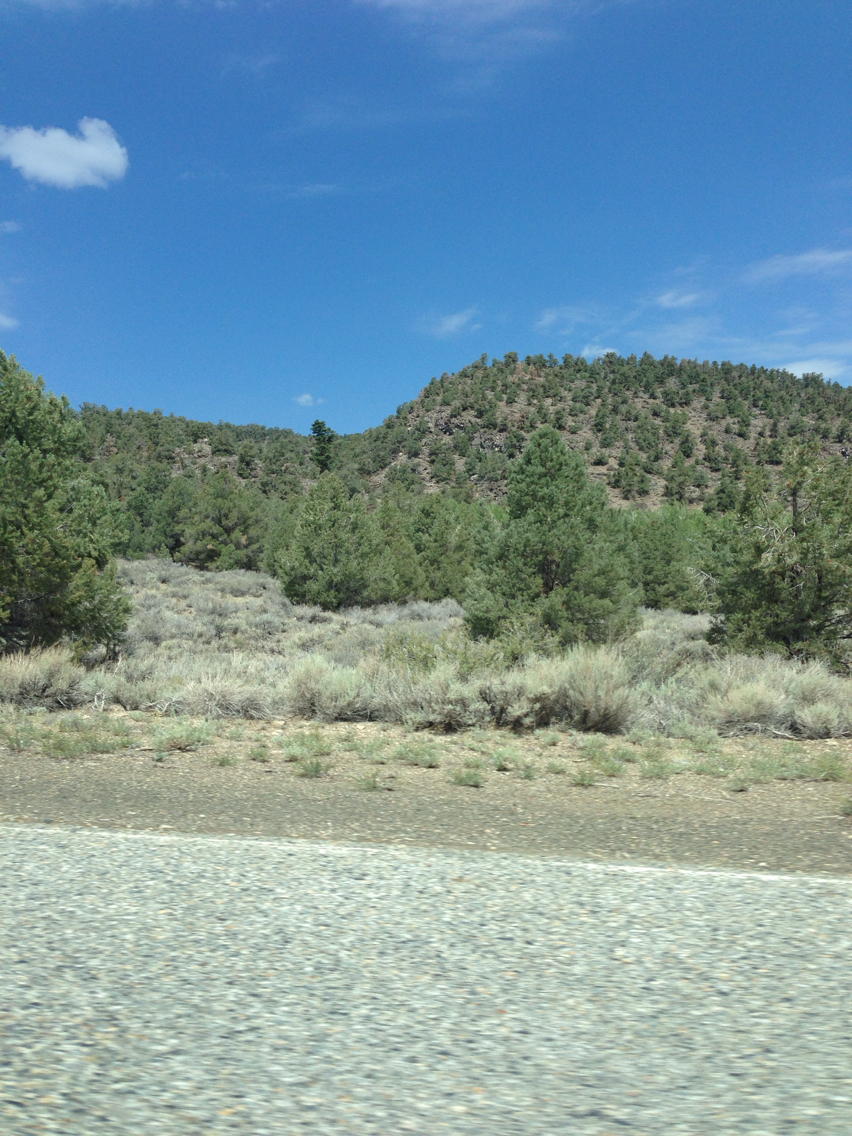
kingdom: Plantae
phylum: Tracheophyta
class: Pinopsida
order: Pinales
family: Pinaceae
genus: Pinus
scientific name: Pinus monophylla
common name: One-leaved nut pine
